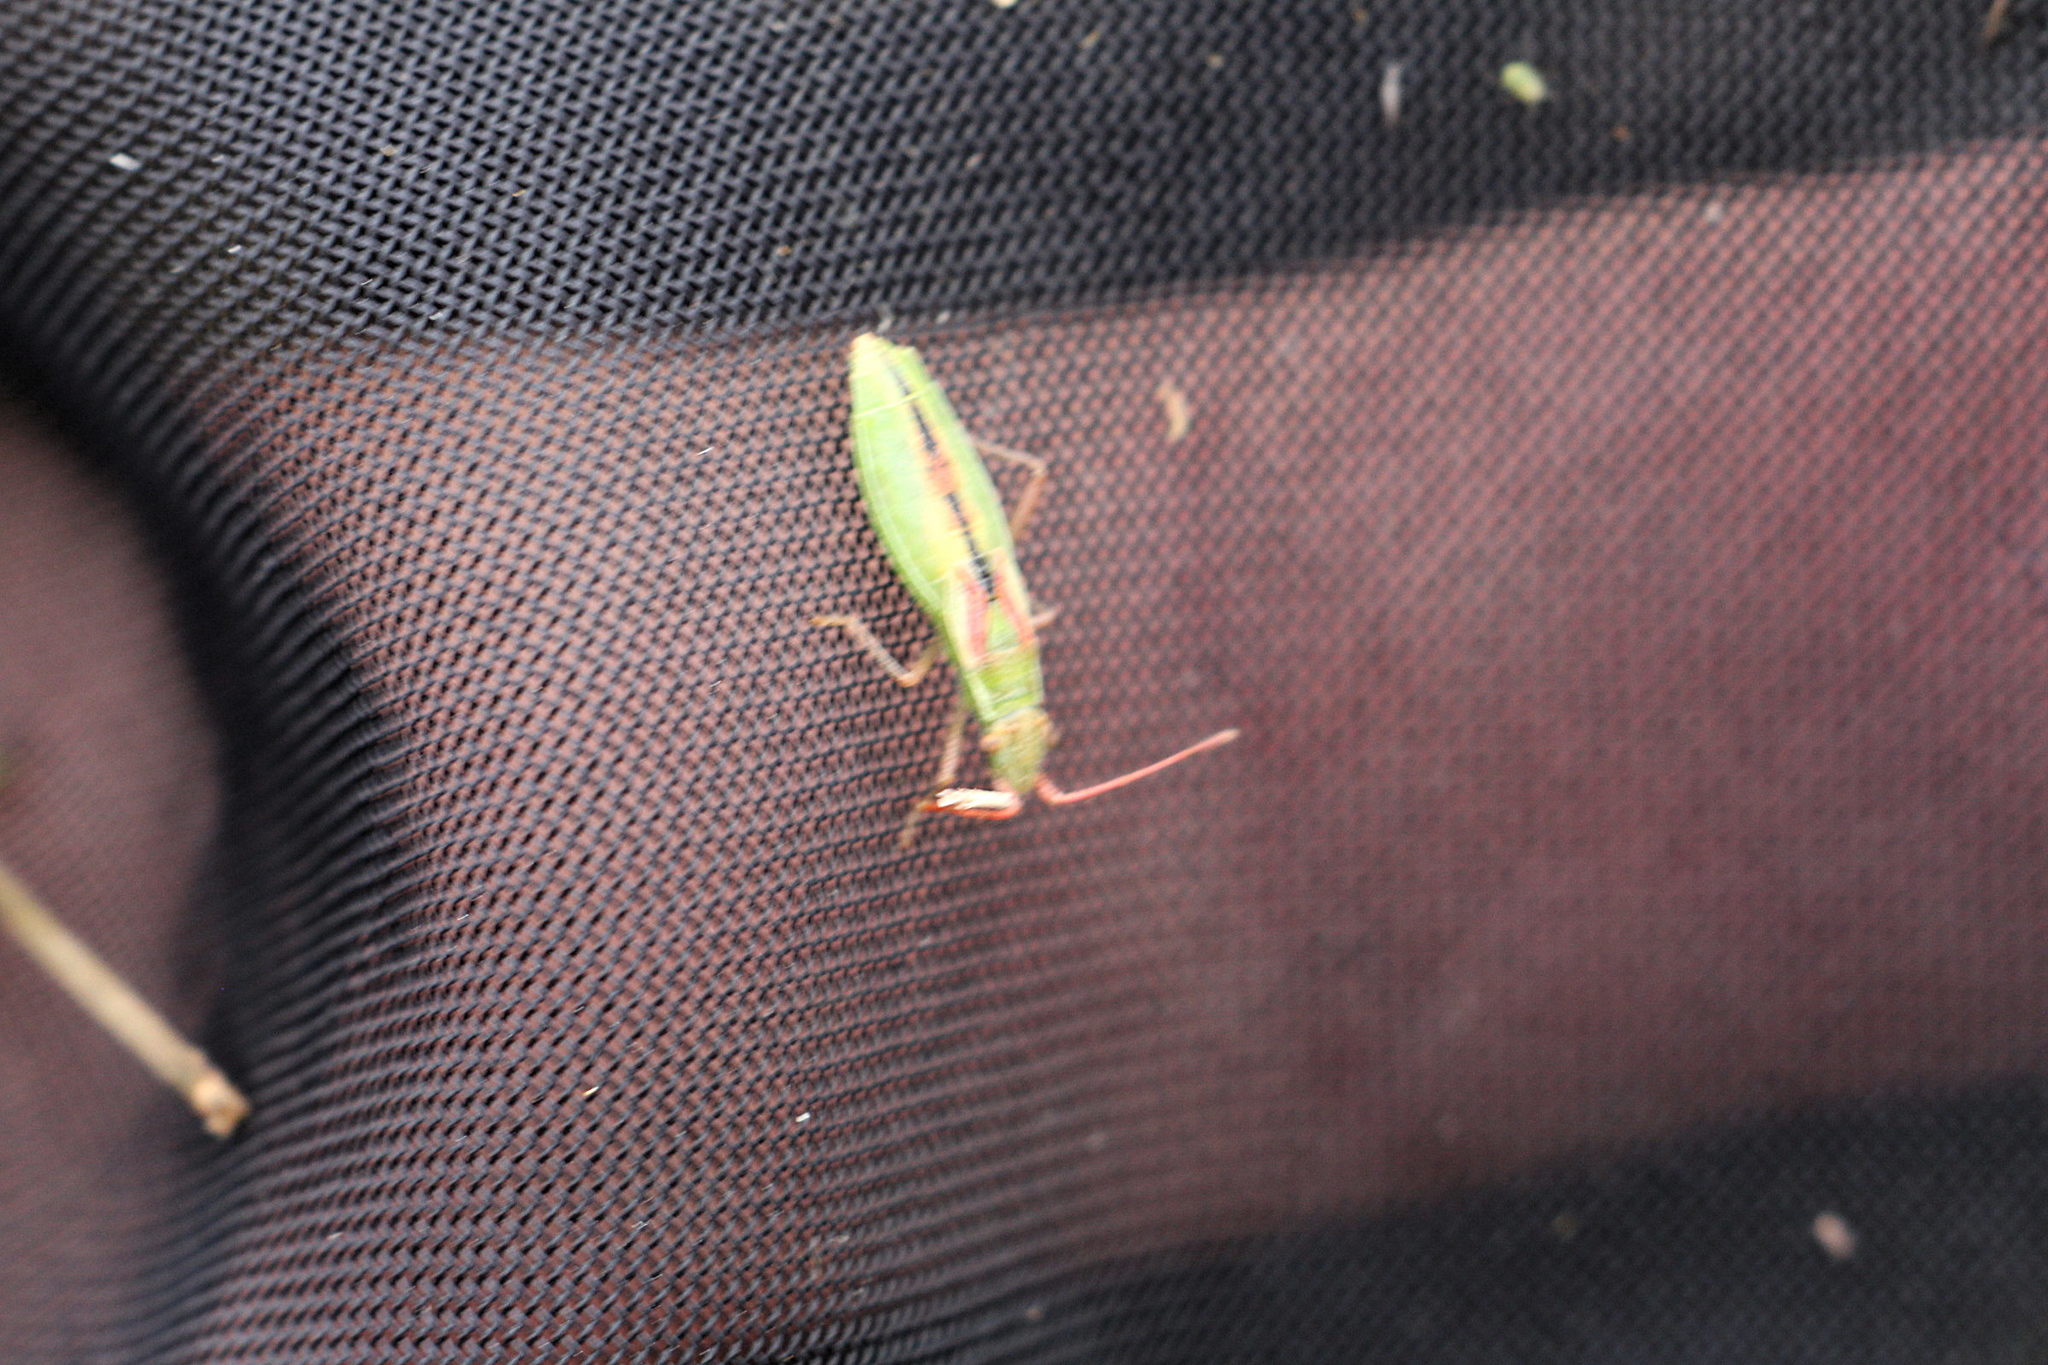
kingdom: Animalia
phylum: Arthropoda
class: Insecta
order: Hemiptera
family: Rhopalidae
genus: Myrmus
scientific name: Myrmus miriformis
